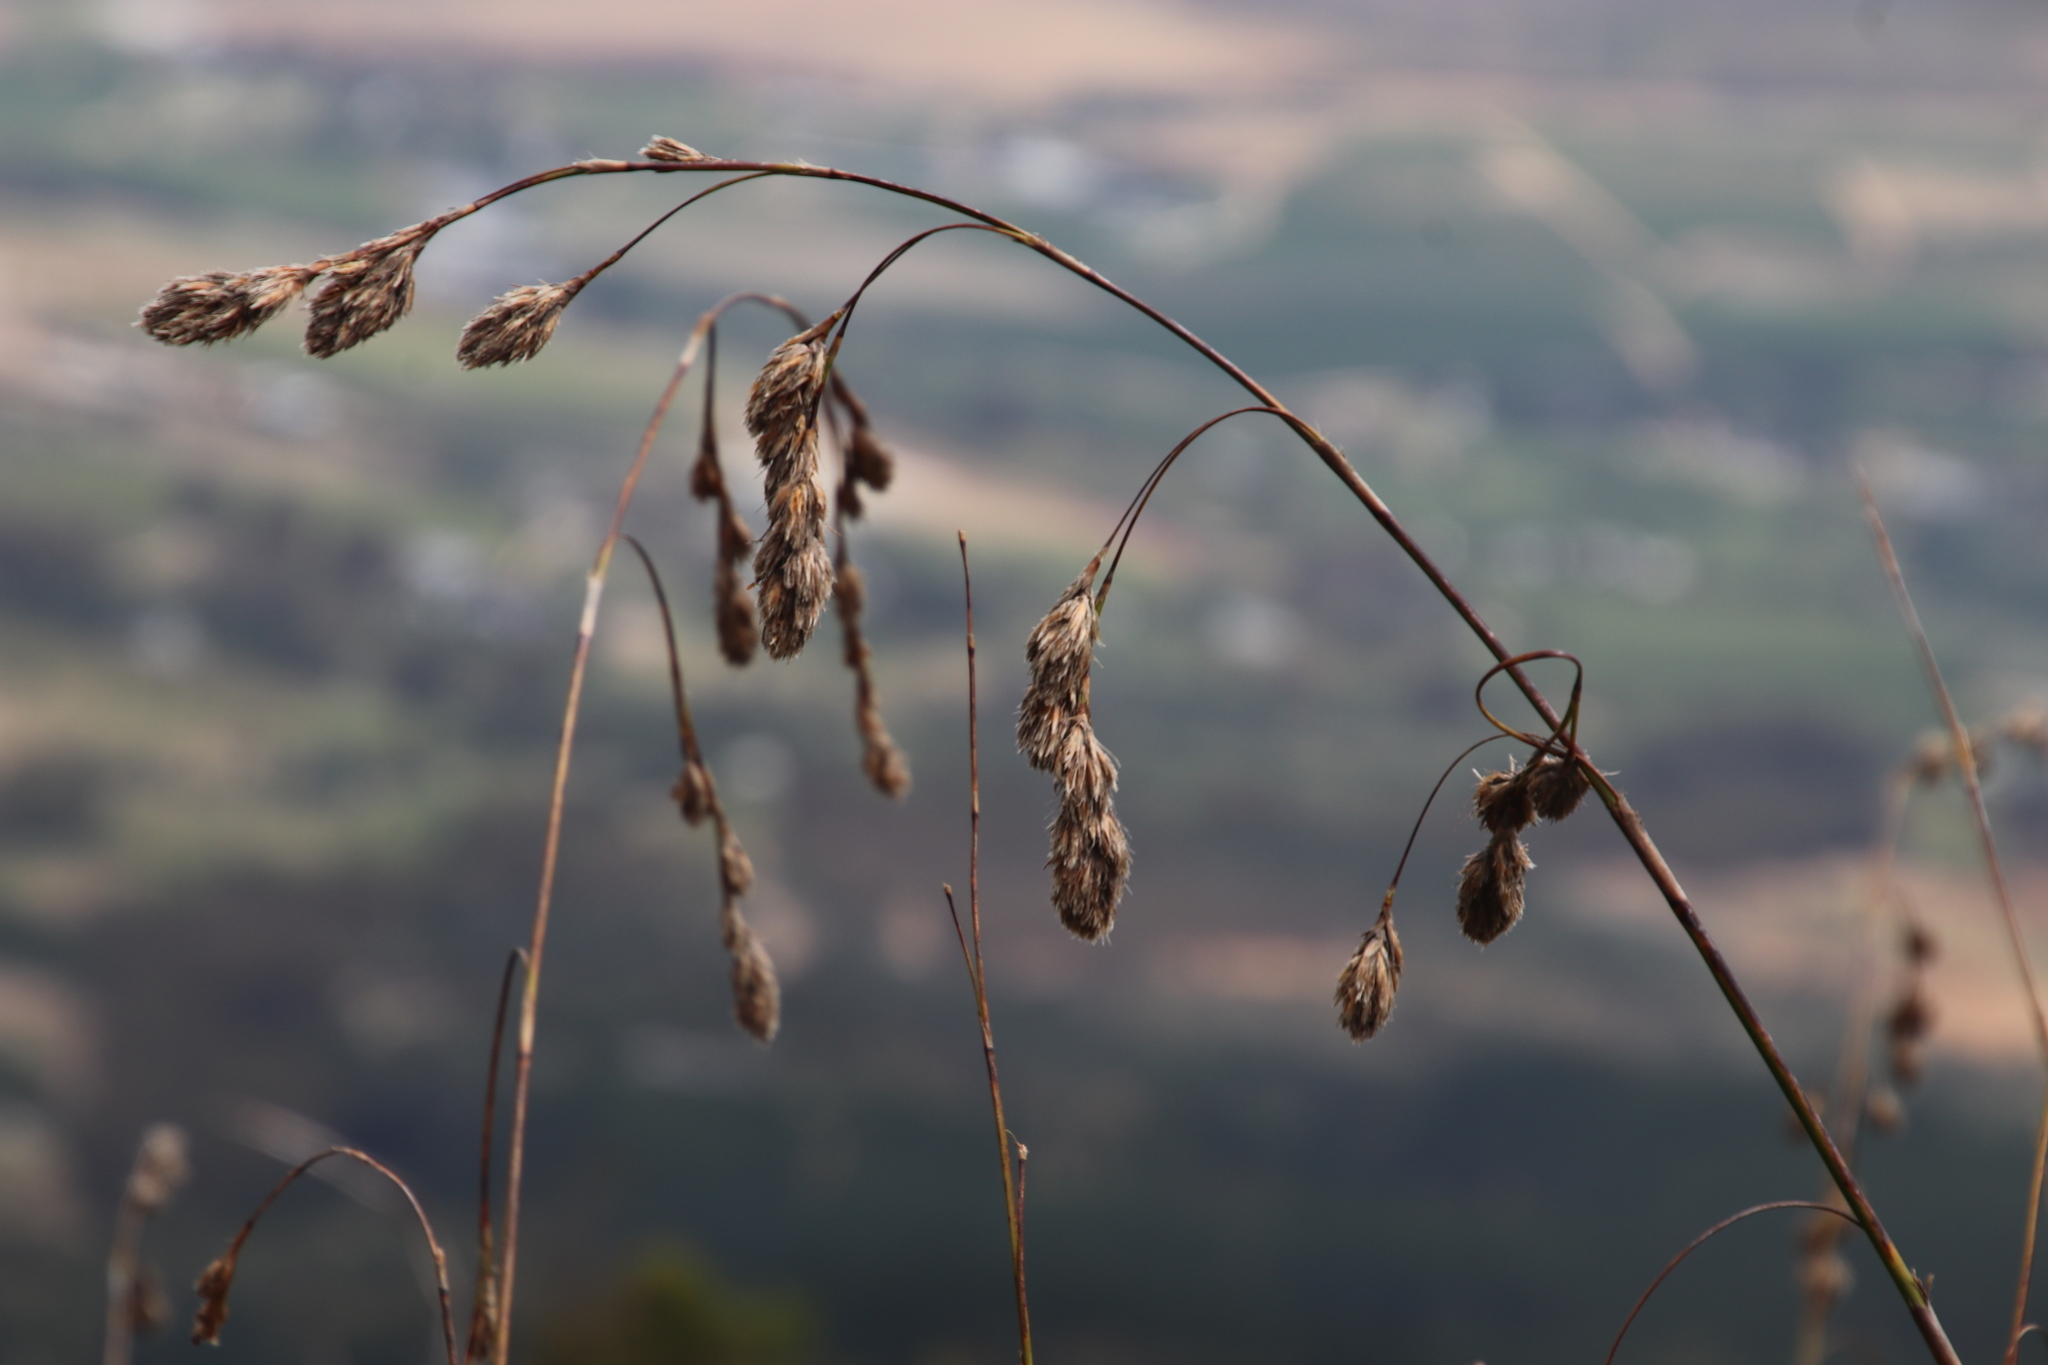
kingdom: Plantae
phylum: Tracheophyta
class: Liliopsida
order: Poales
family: Cyperaceae
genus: Tetraria
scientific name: Tetraria bromoides
